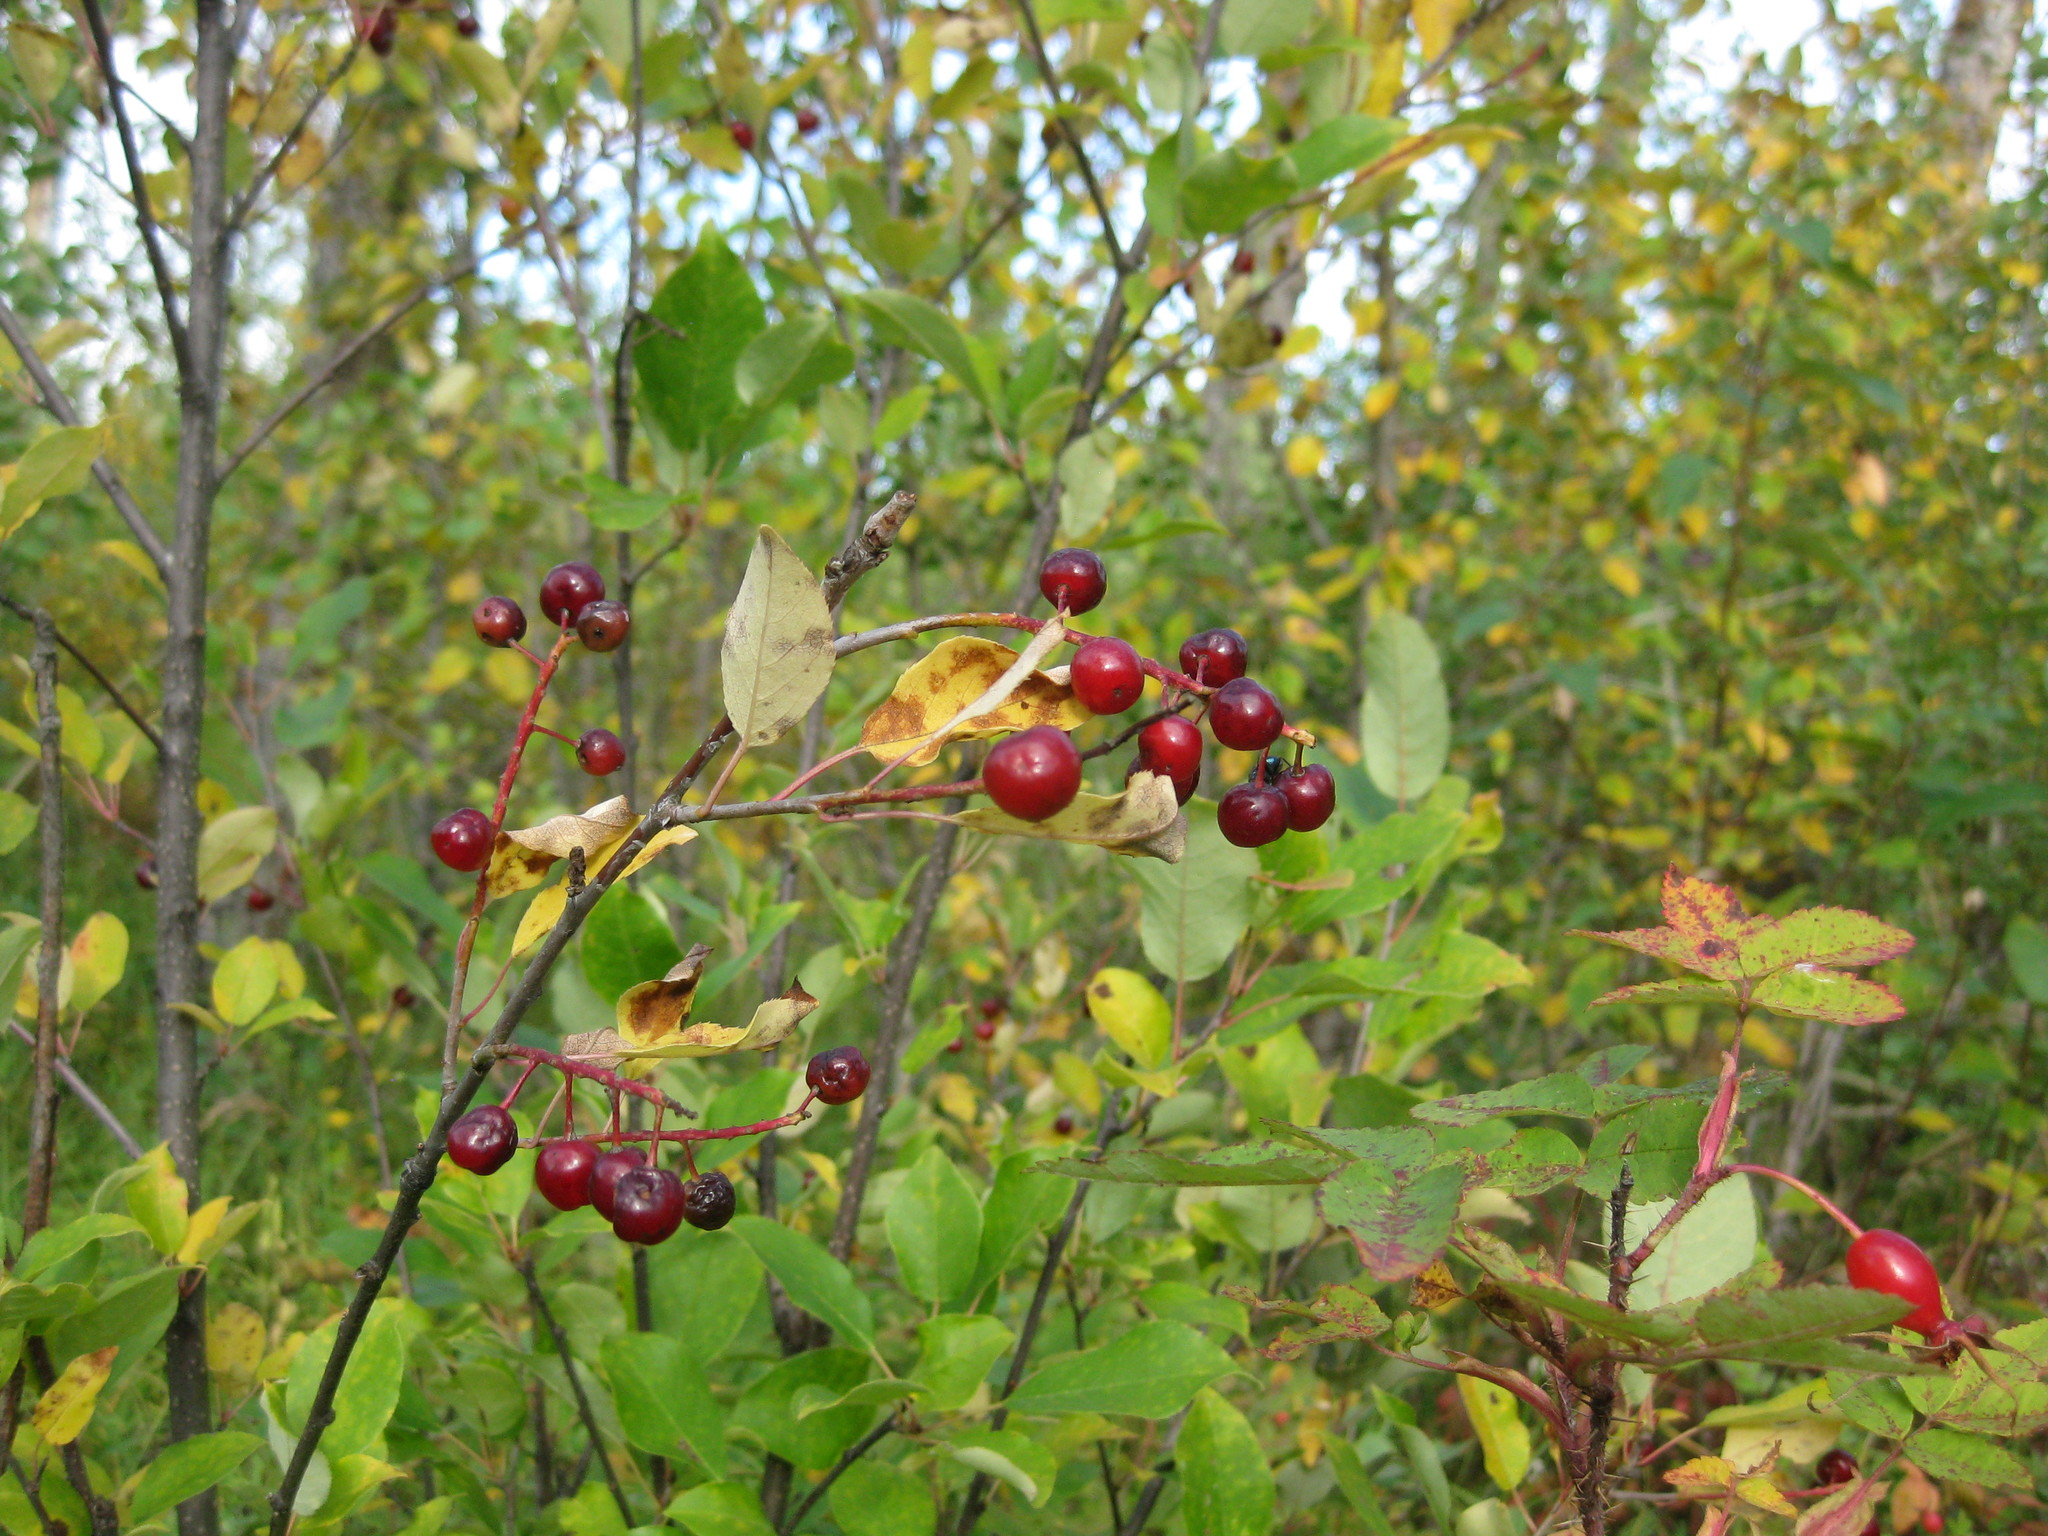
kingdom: Plantae
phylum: Tracheophyta
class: Magnoliopsida
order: Rosales
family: Rosaceae
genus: Prunus
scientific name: Prunus virginiana
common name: Chokecherry
